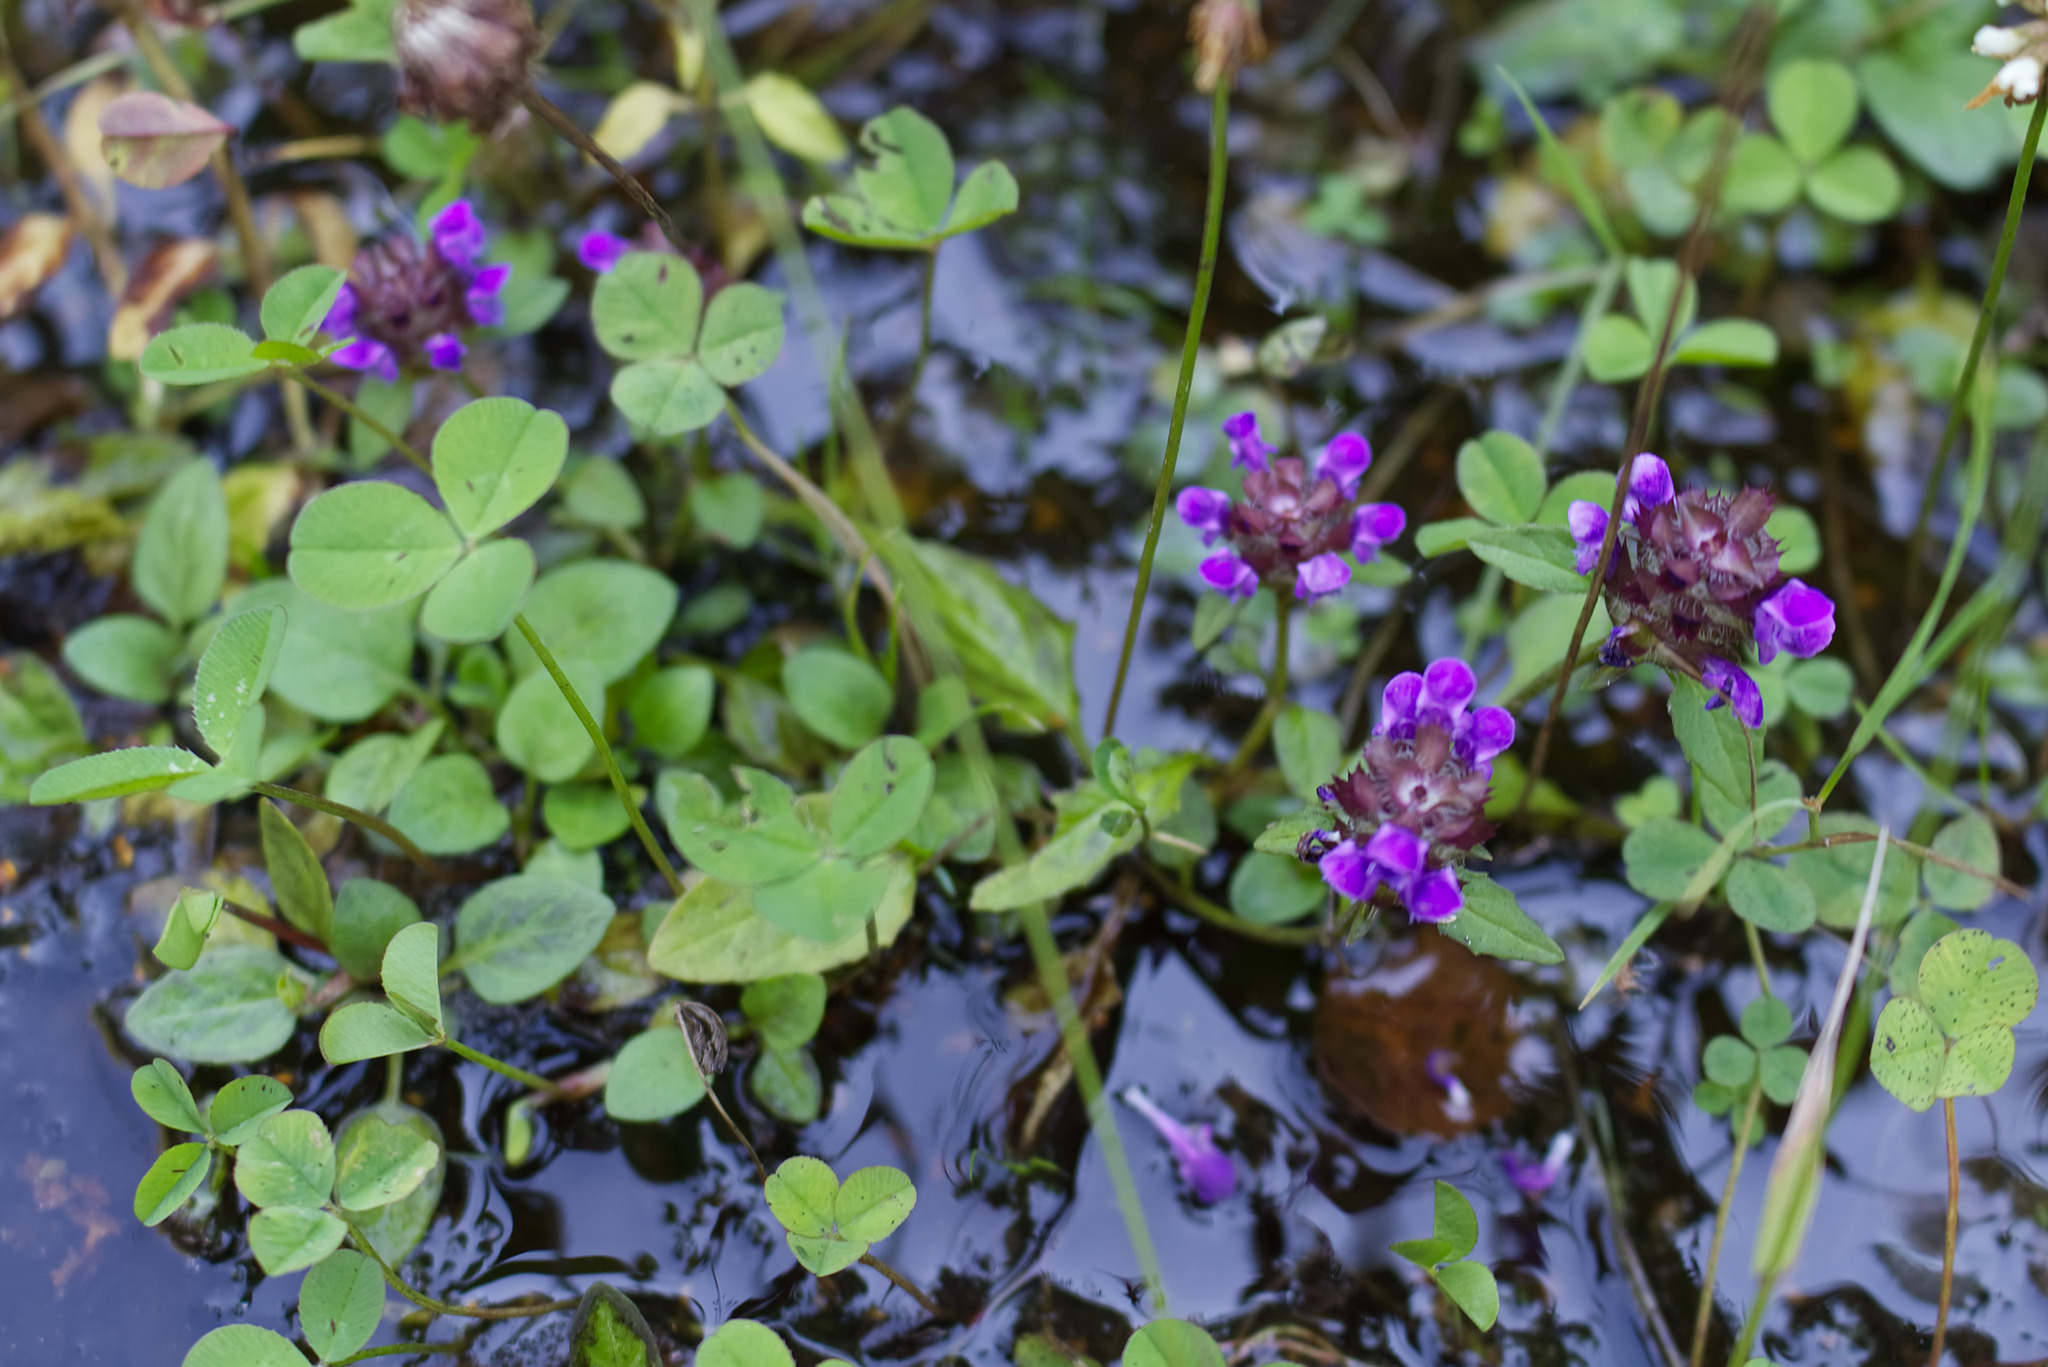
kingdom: Plantae
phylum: Tracheophyta
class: Magnoliopsida
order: Lamiales
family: Lamiaceae
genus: Prunella
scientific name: Prunella vulgaris
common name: Heal-all
